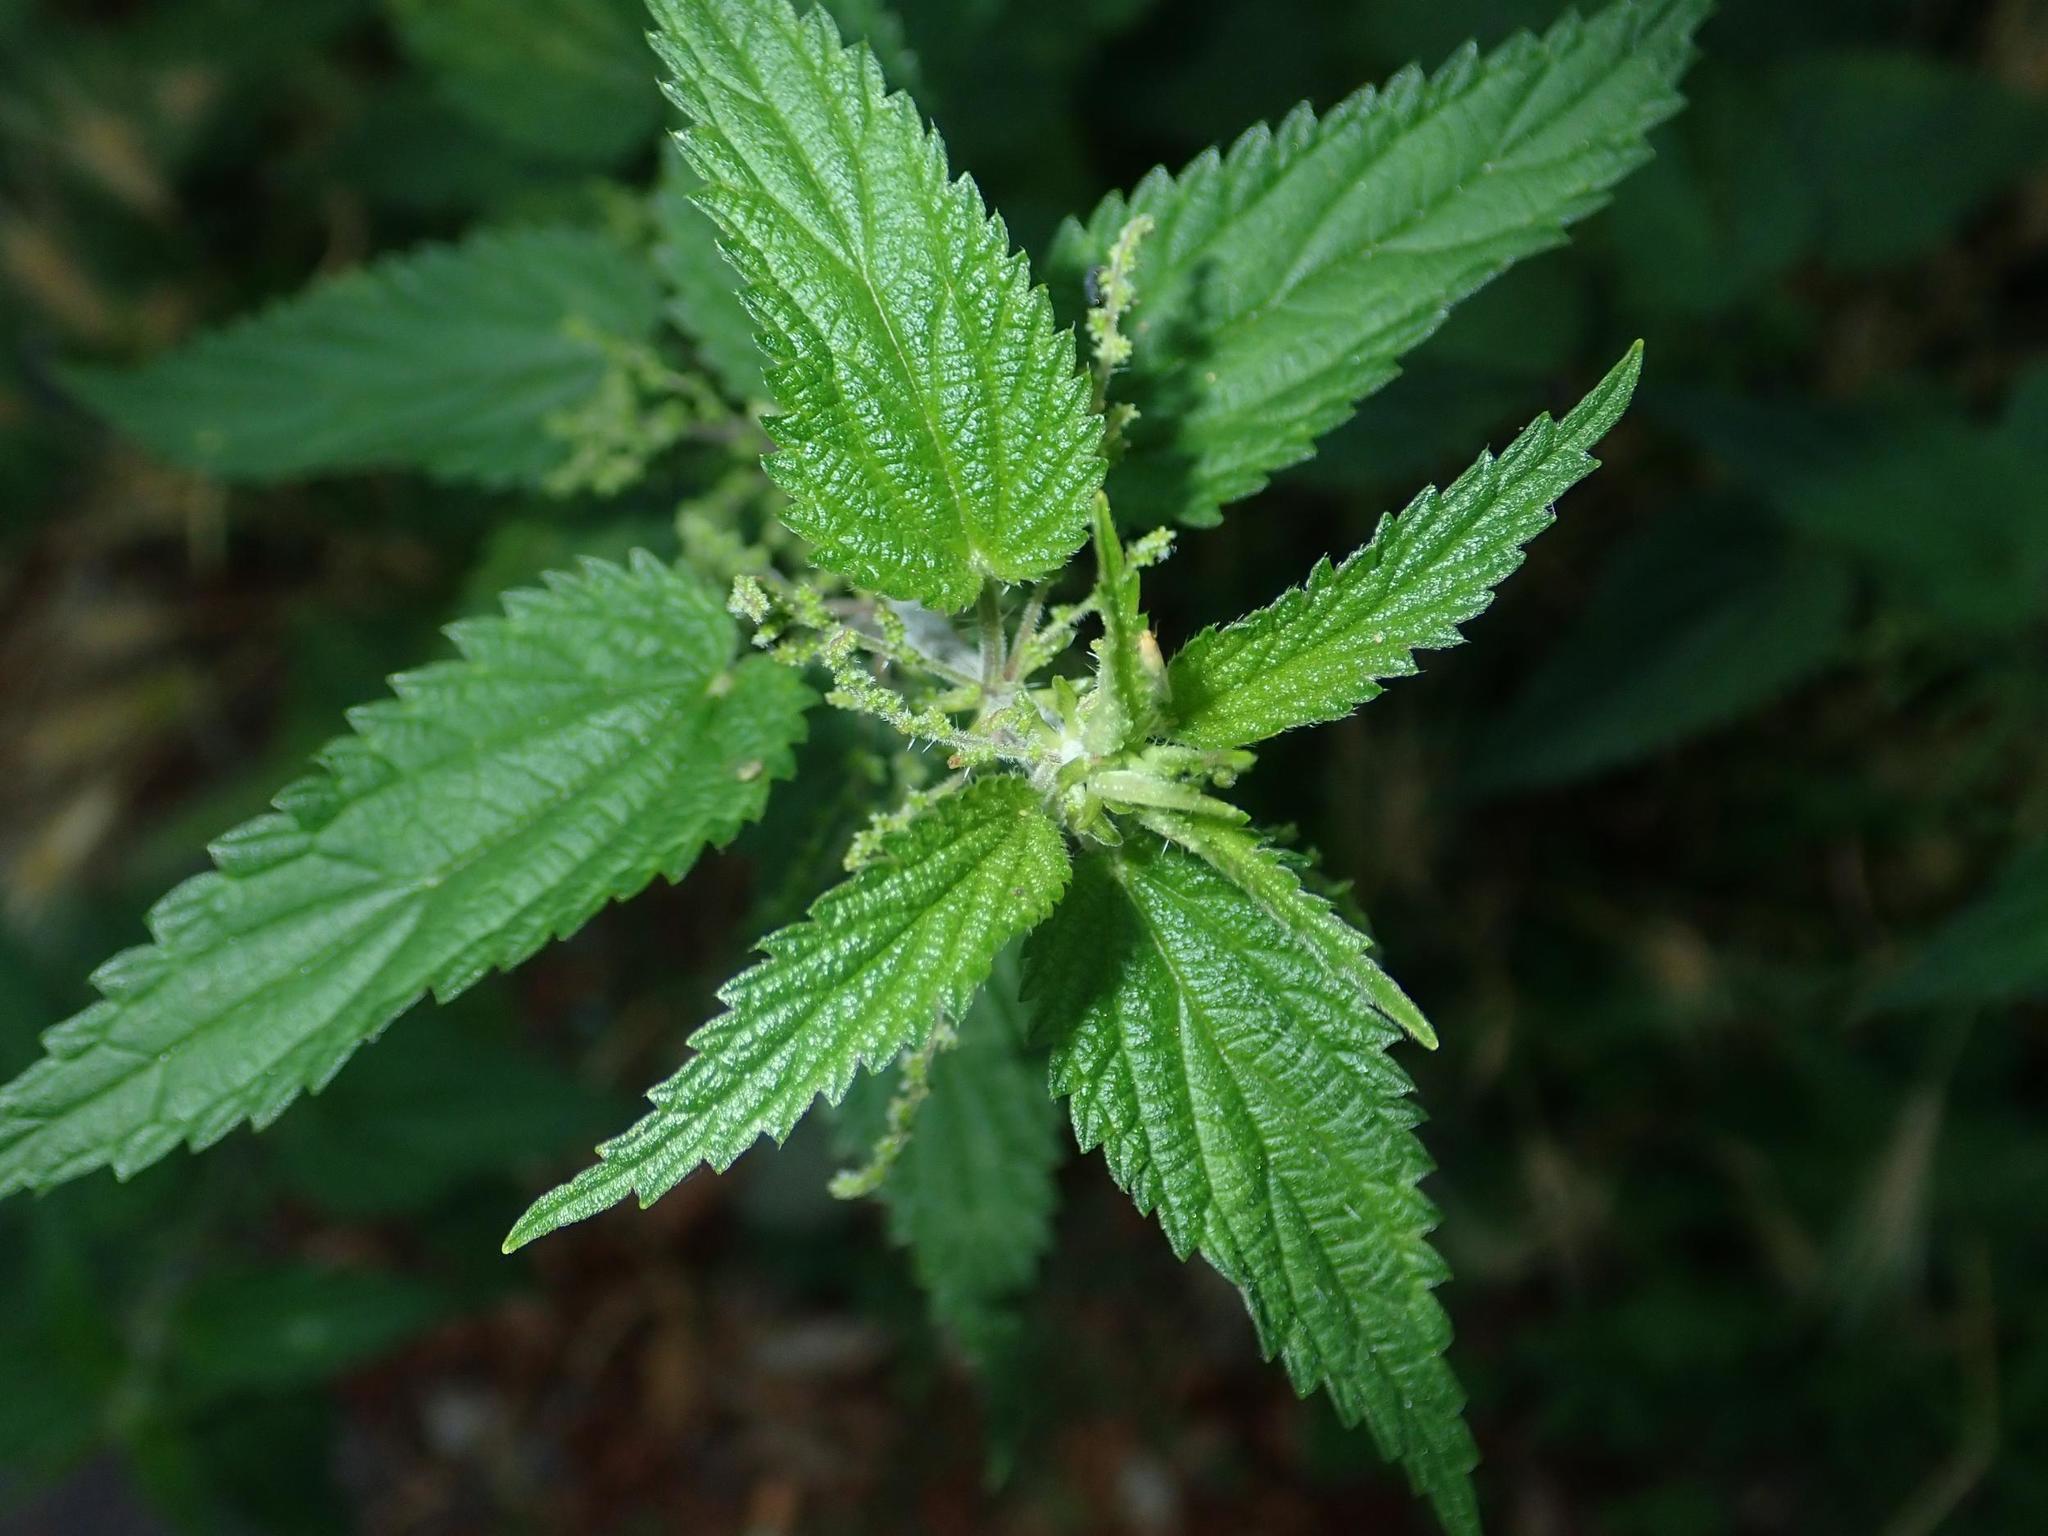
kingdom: Plantae
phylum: Tracheophyta
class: Magnoliopsida
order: Rosales
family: Urticaceae
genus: Urtica
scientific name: Urtica dioica
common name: Common nettle
